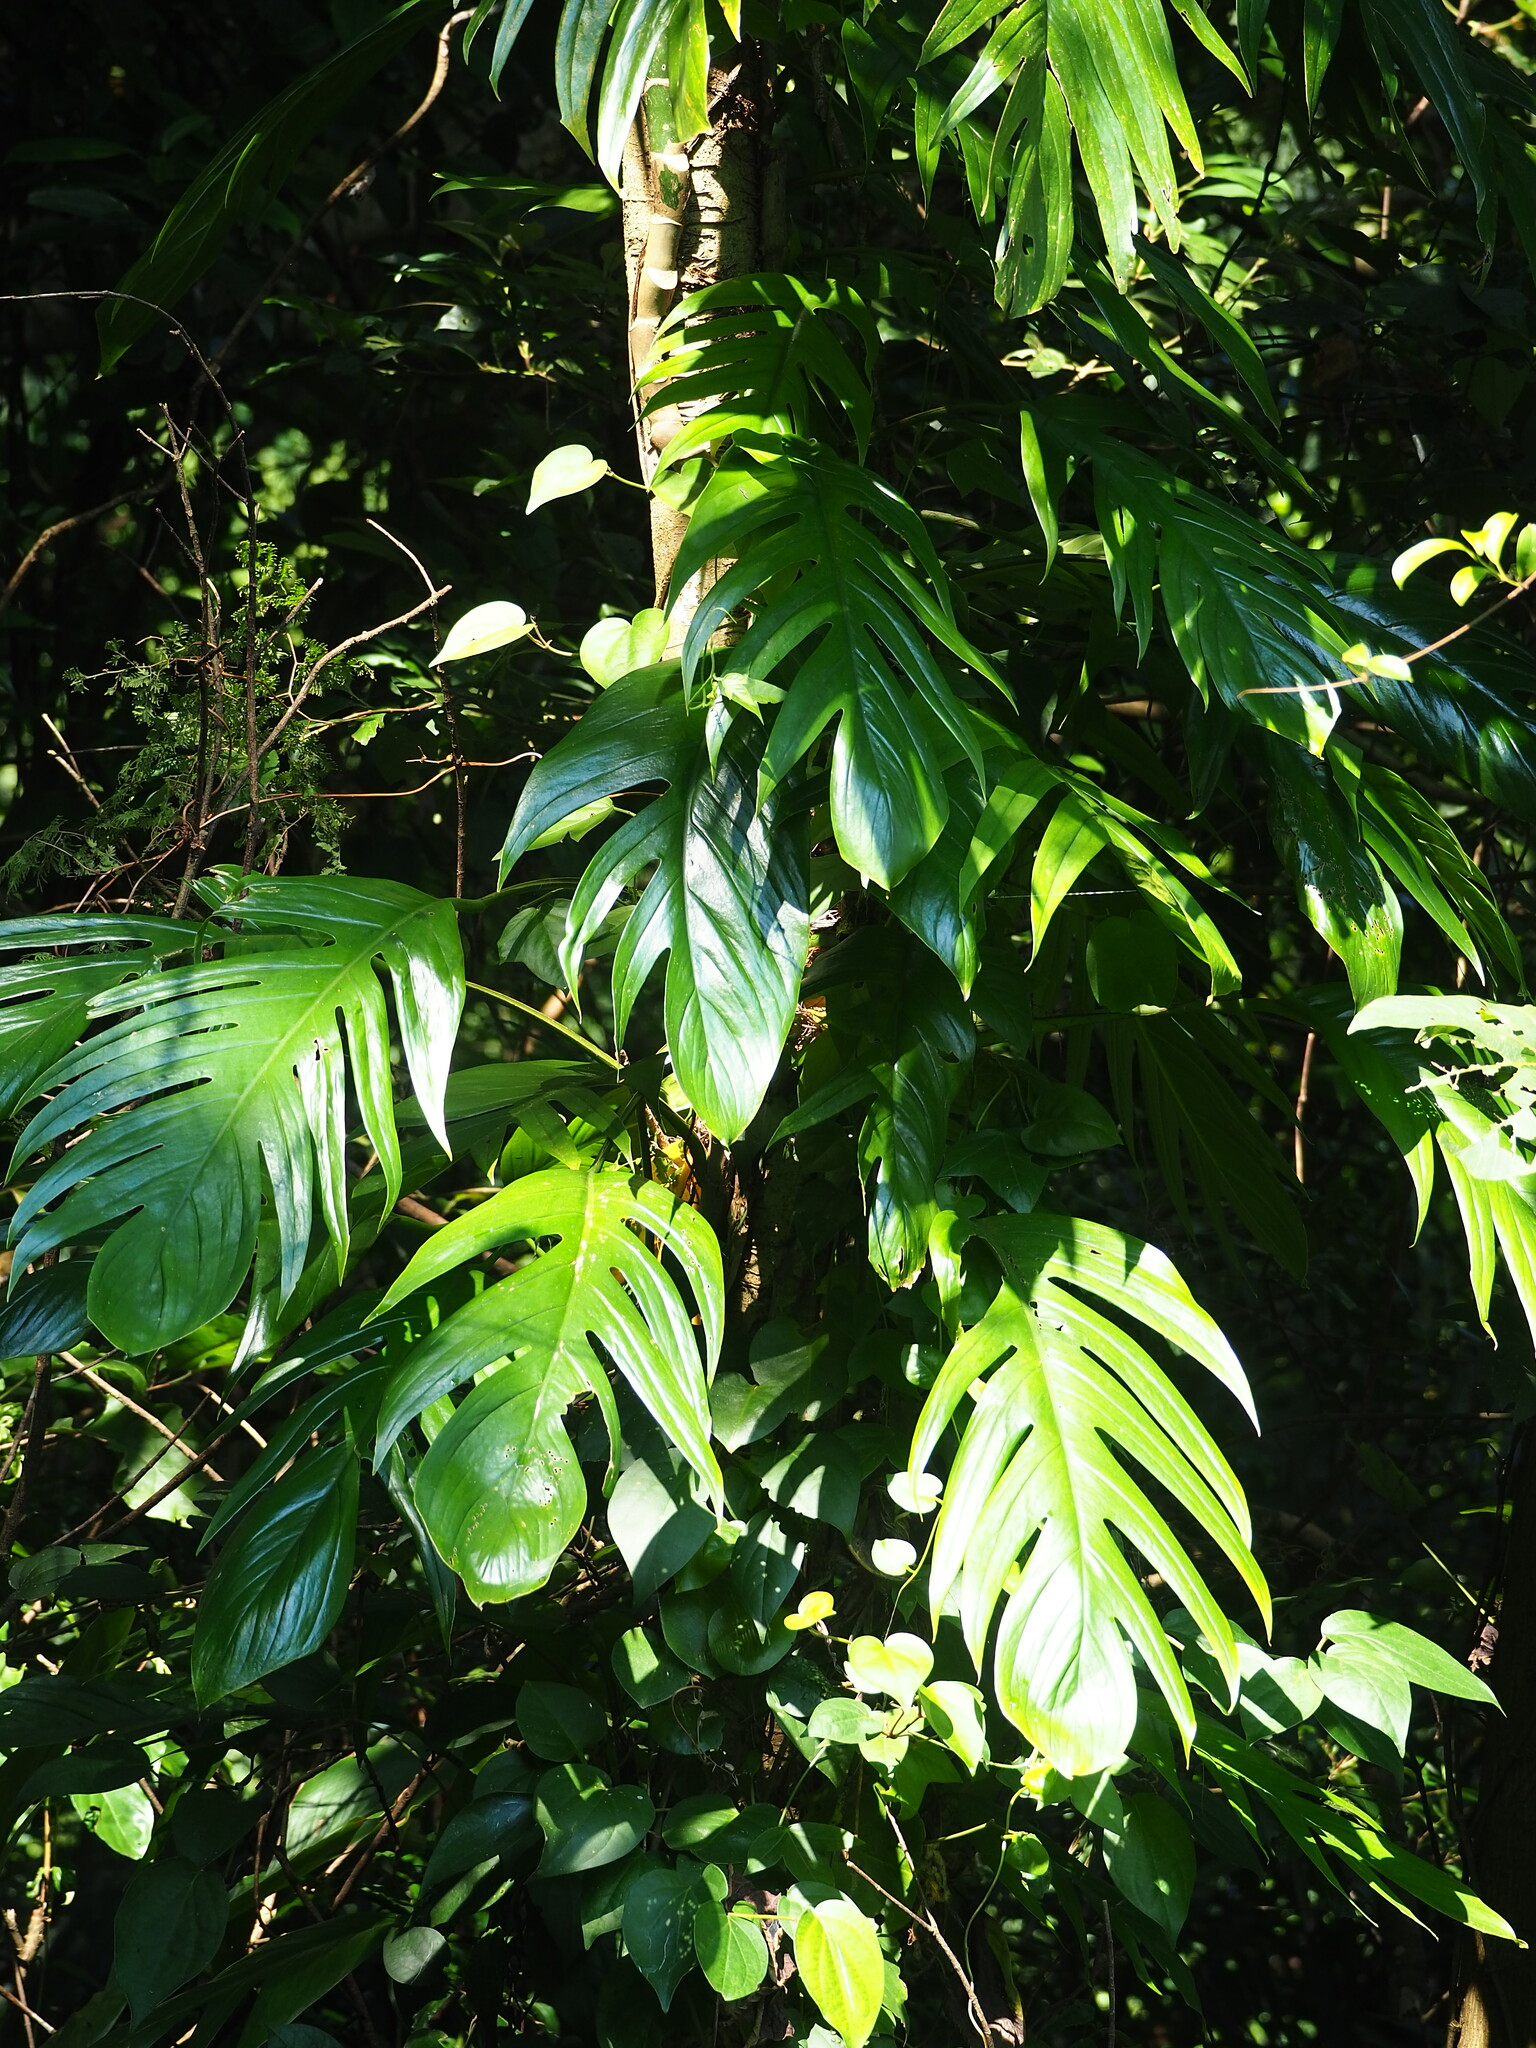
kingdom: Plantae
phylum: Tracheophyta
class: Liliopsida
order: Alismatales
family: Araceae
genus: Epipremnum
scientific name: Epipremnum pinnatum
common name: Centipede tongavine
